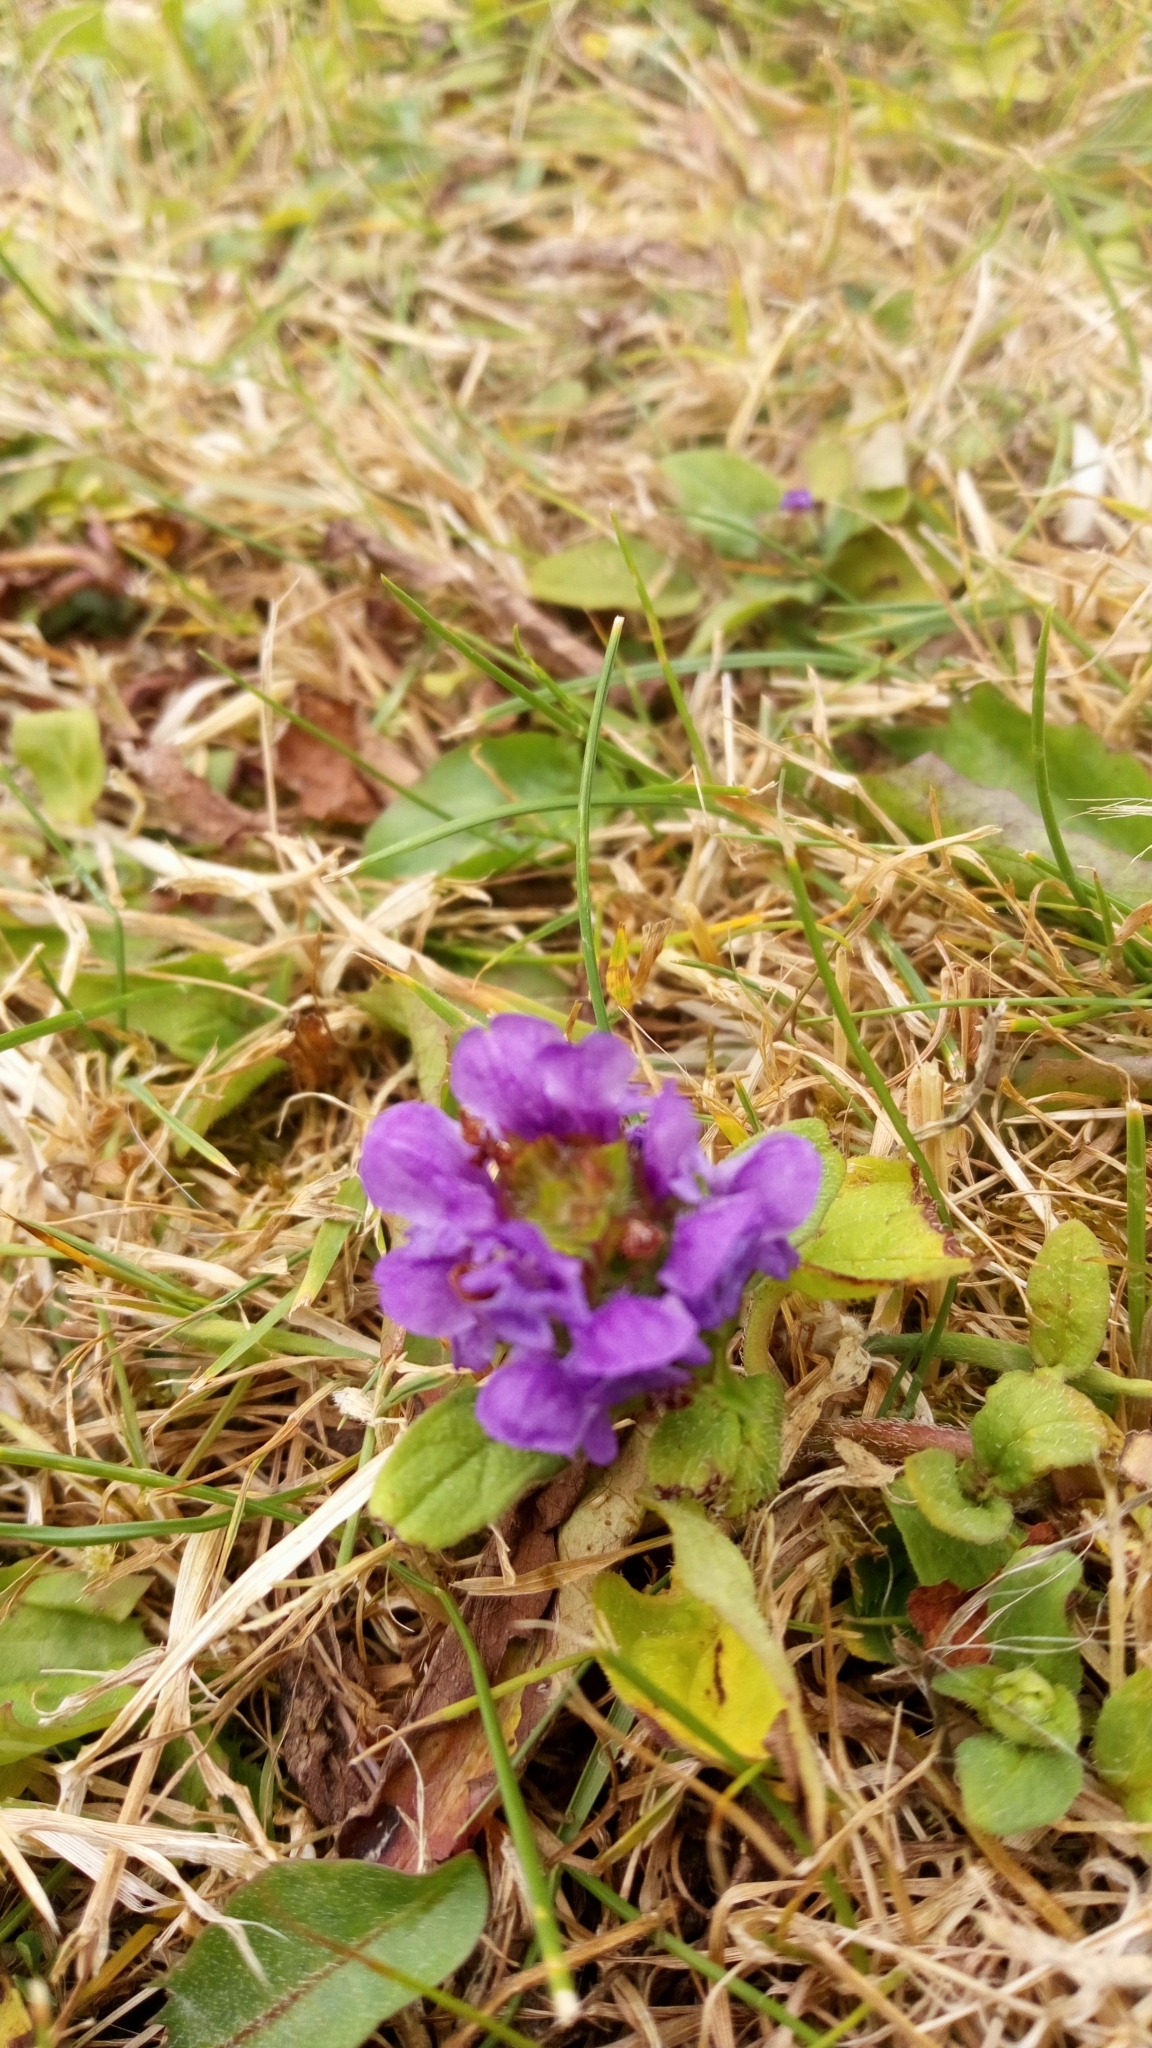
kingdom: Plantae
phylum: Tracheophyta
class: Magnoliopsida
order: Lamiales
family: Lamiaceae
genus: Prunella
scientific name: Prunella vulgaris
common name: Heal-all
